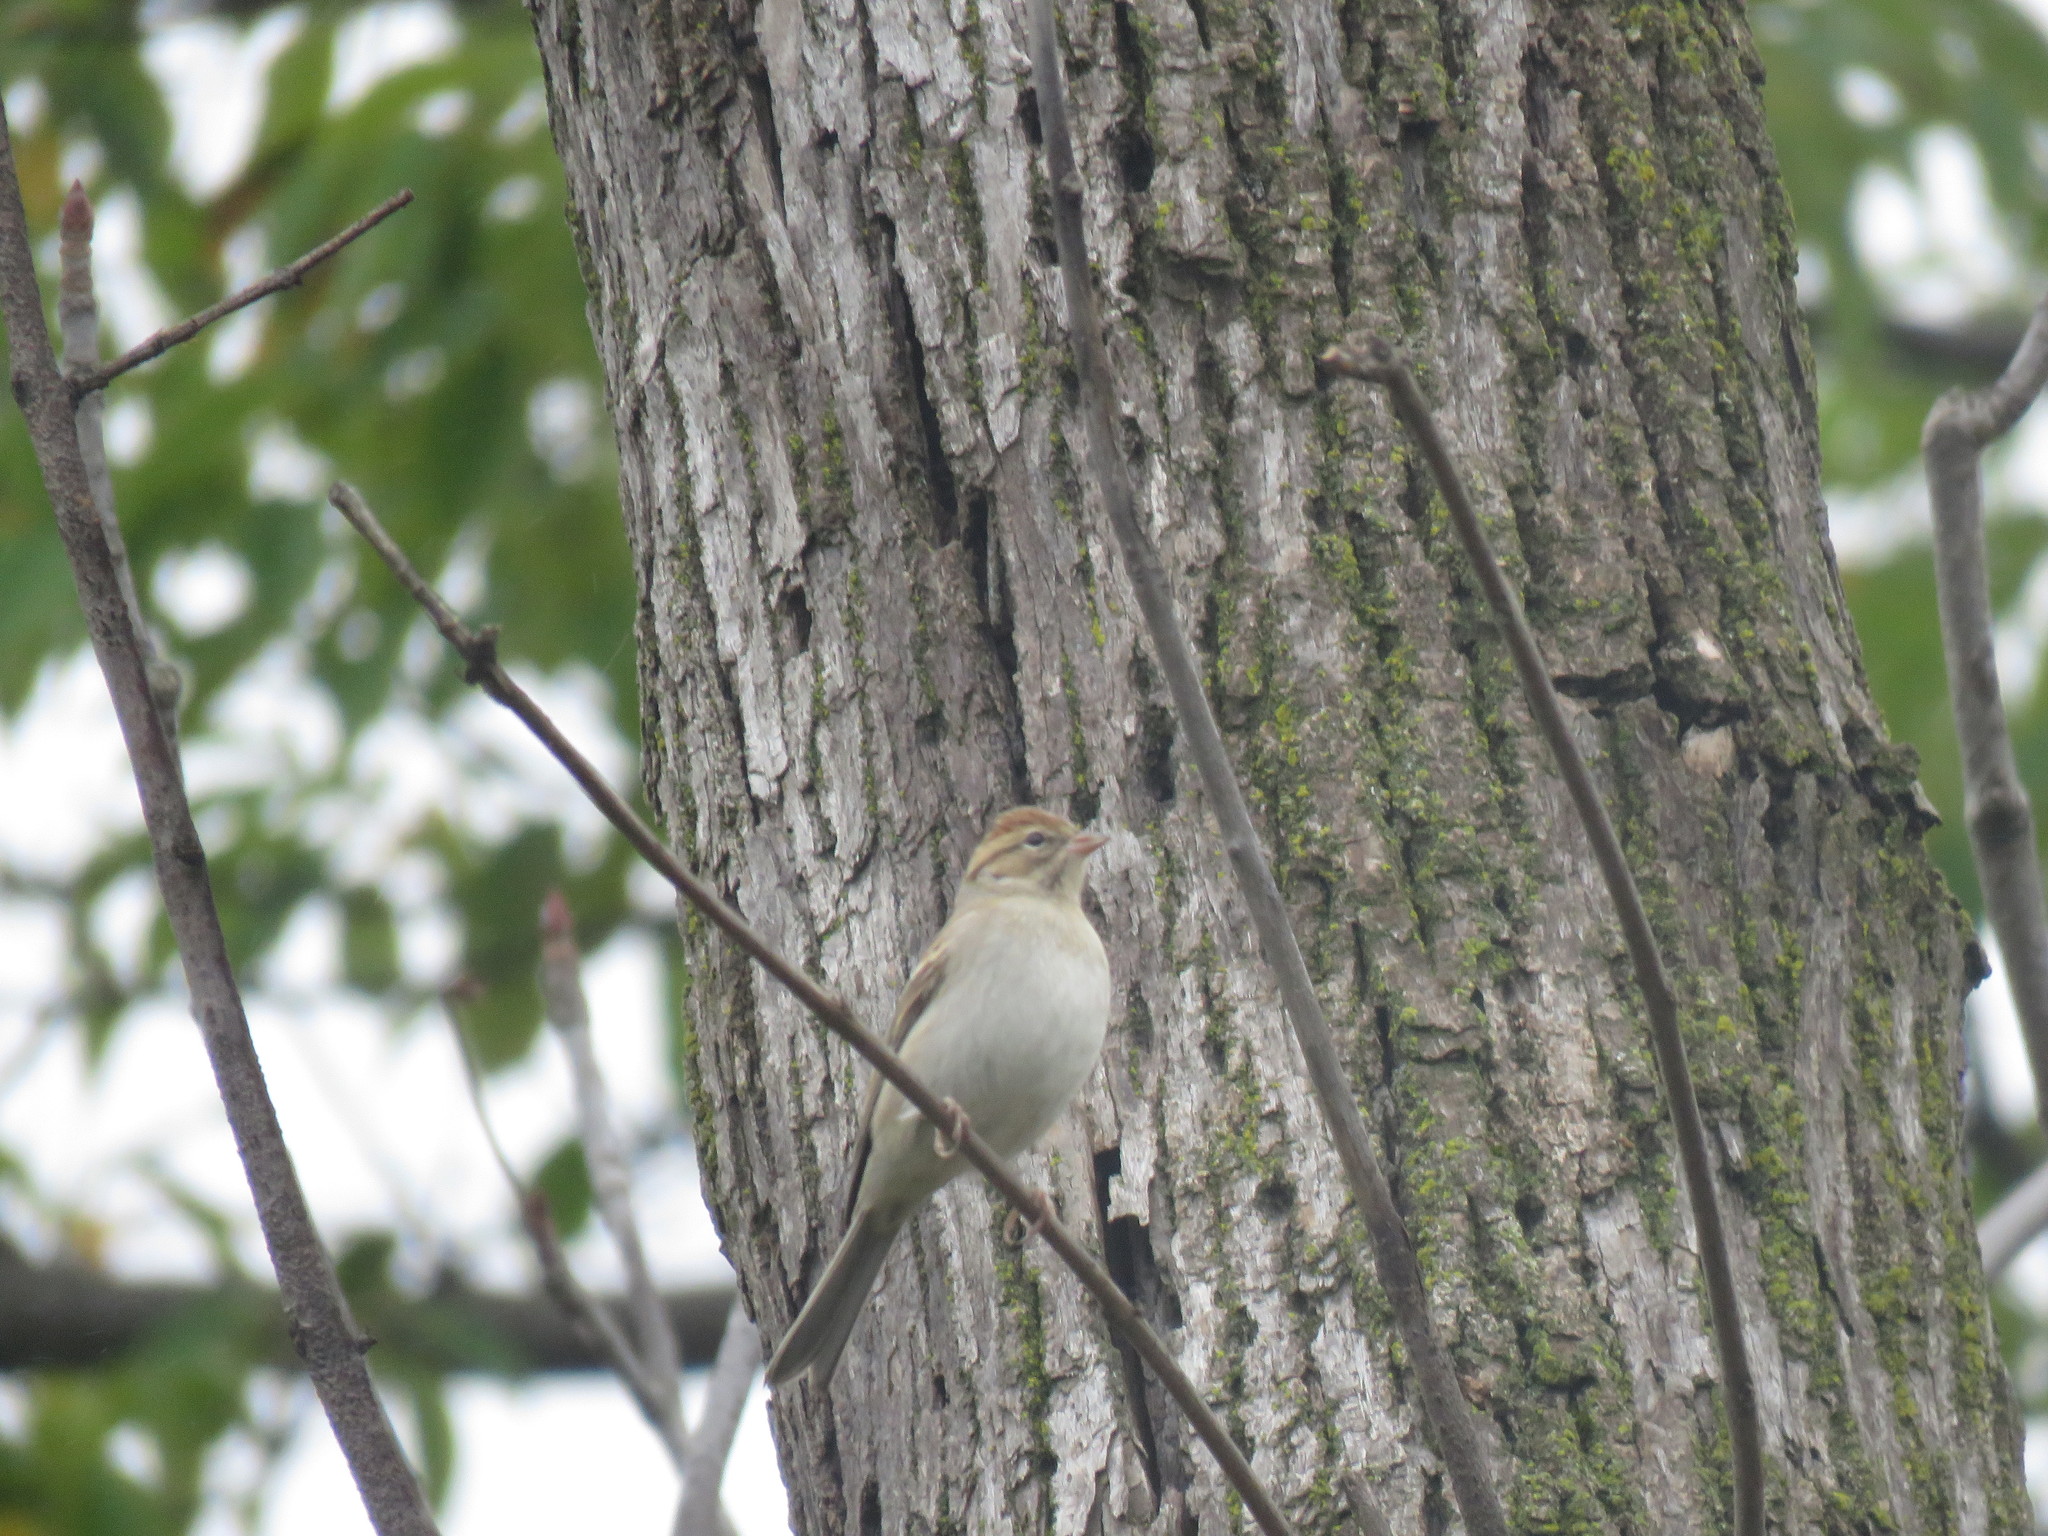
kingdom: Animalia
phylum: Chordata
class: Aves
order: Passeriformes
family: Passerellidae
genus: Spizella
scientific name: Spizella passerina
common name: Chipping sparrow
